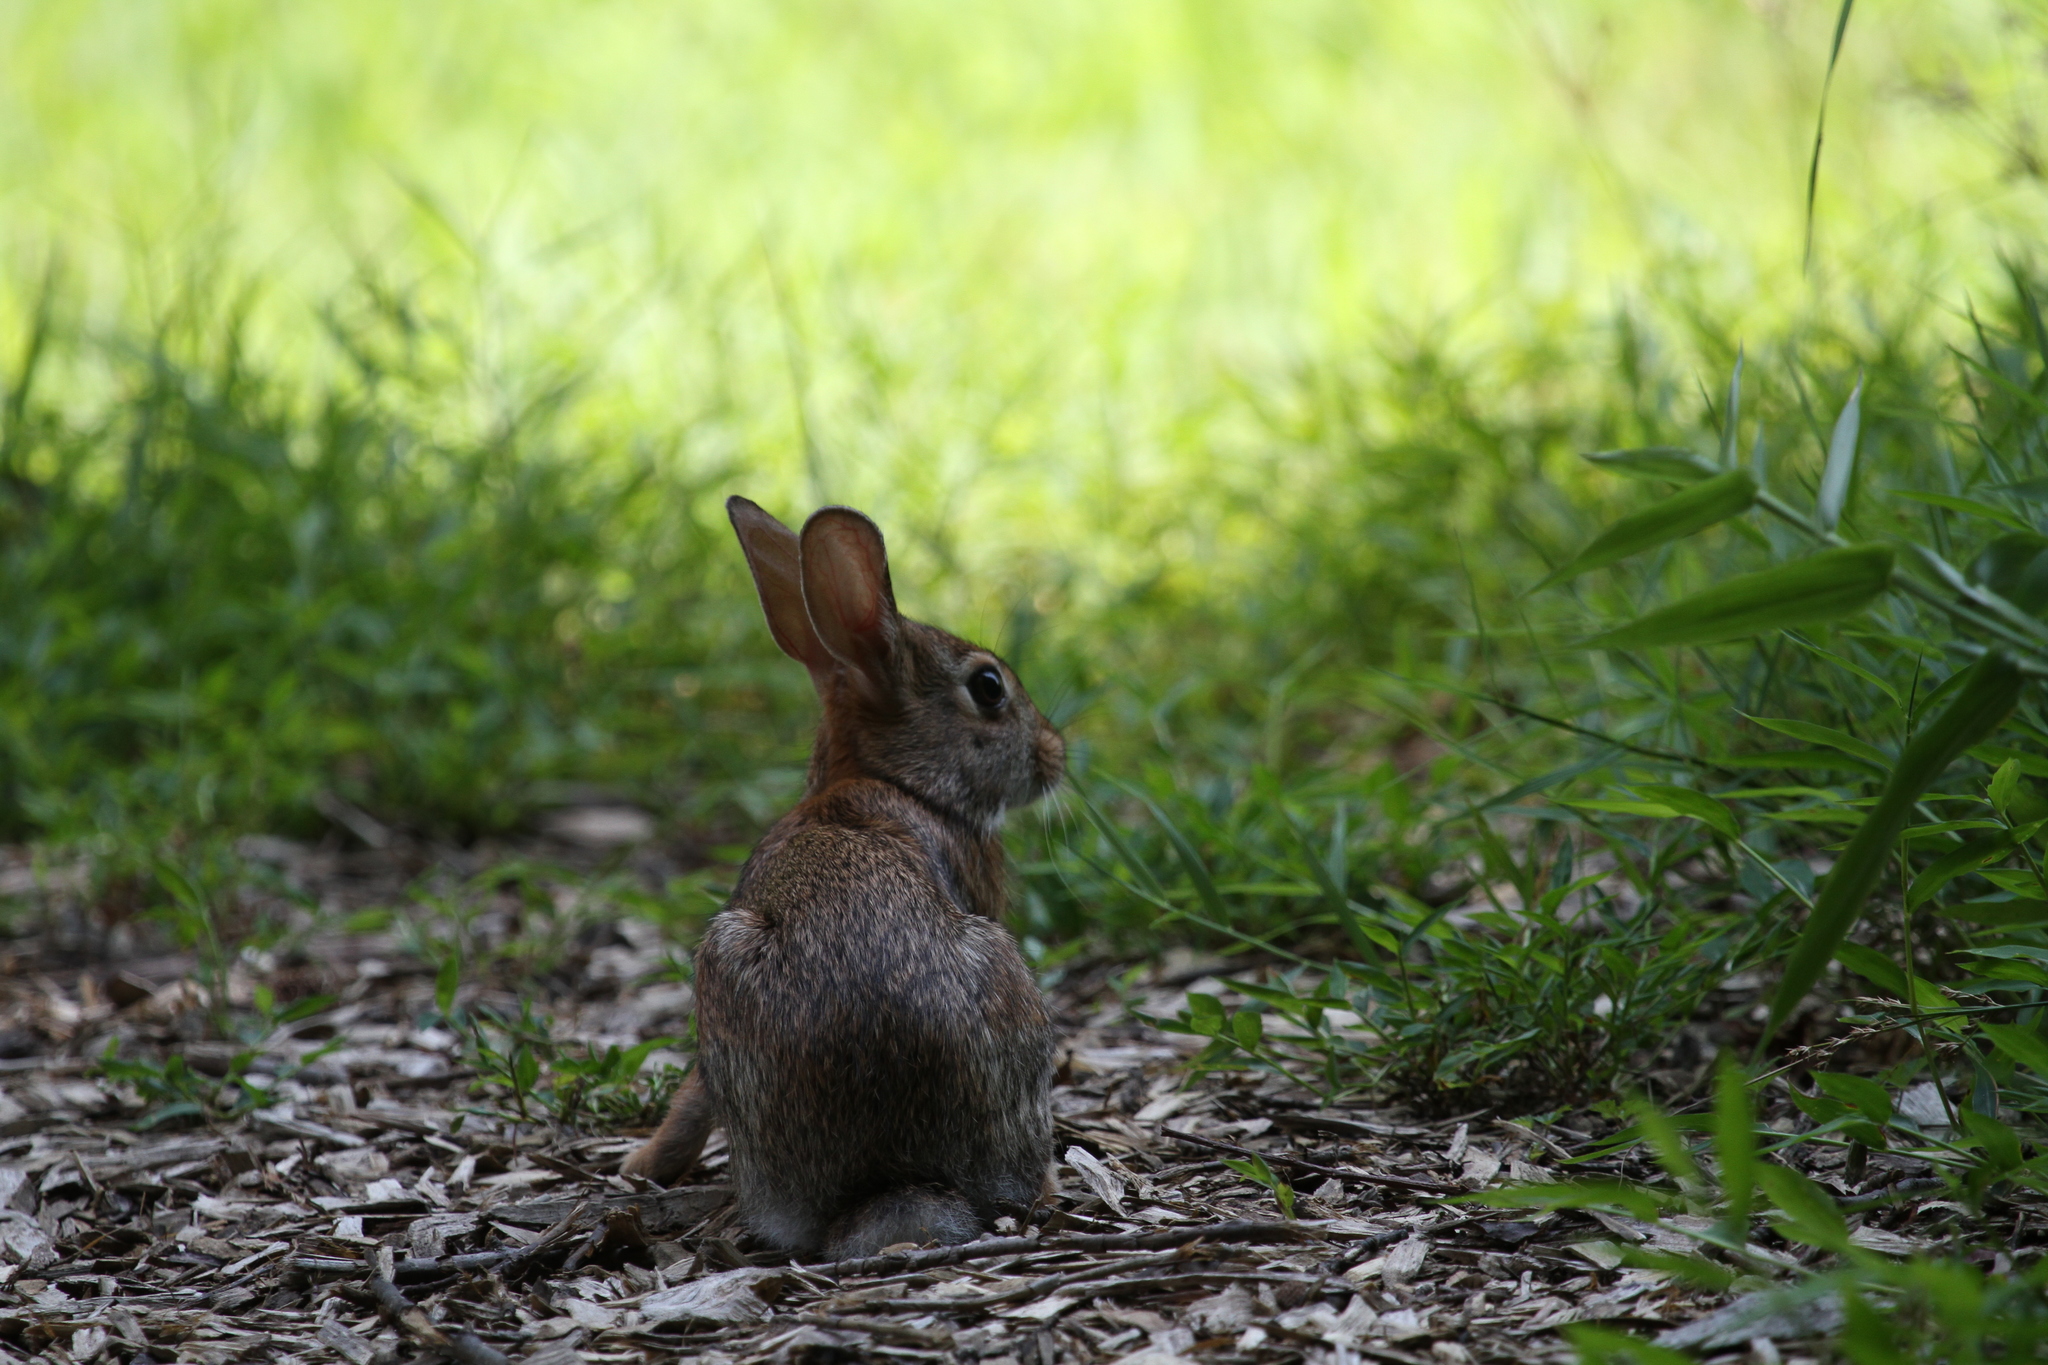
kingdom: Animalia
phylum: Chordata
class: Mammalia
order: Lagomorpha
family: Leporidae
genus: Sylvilagus
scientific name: Sylvilagus floridanus
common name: Eastern cottontail
